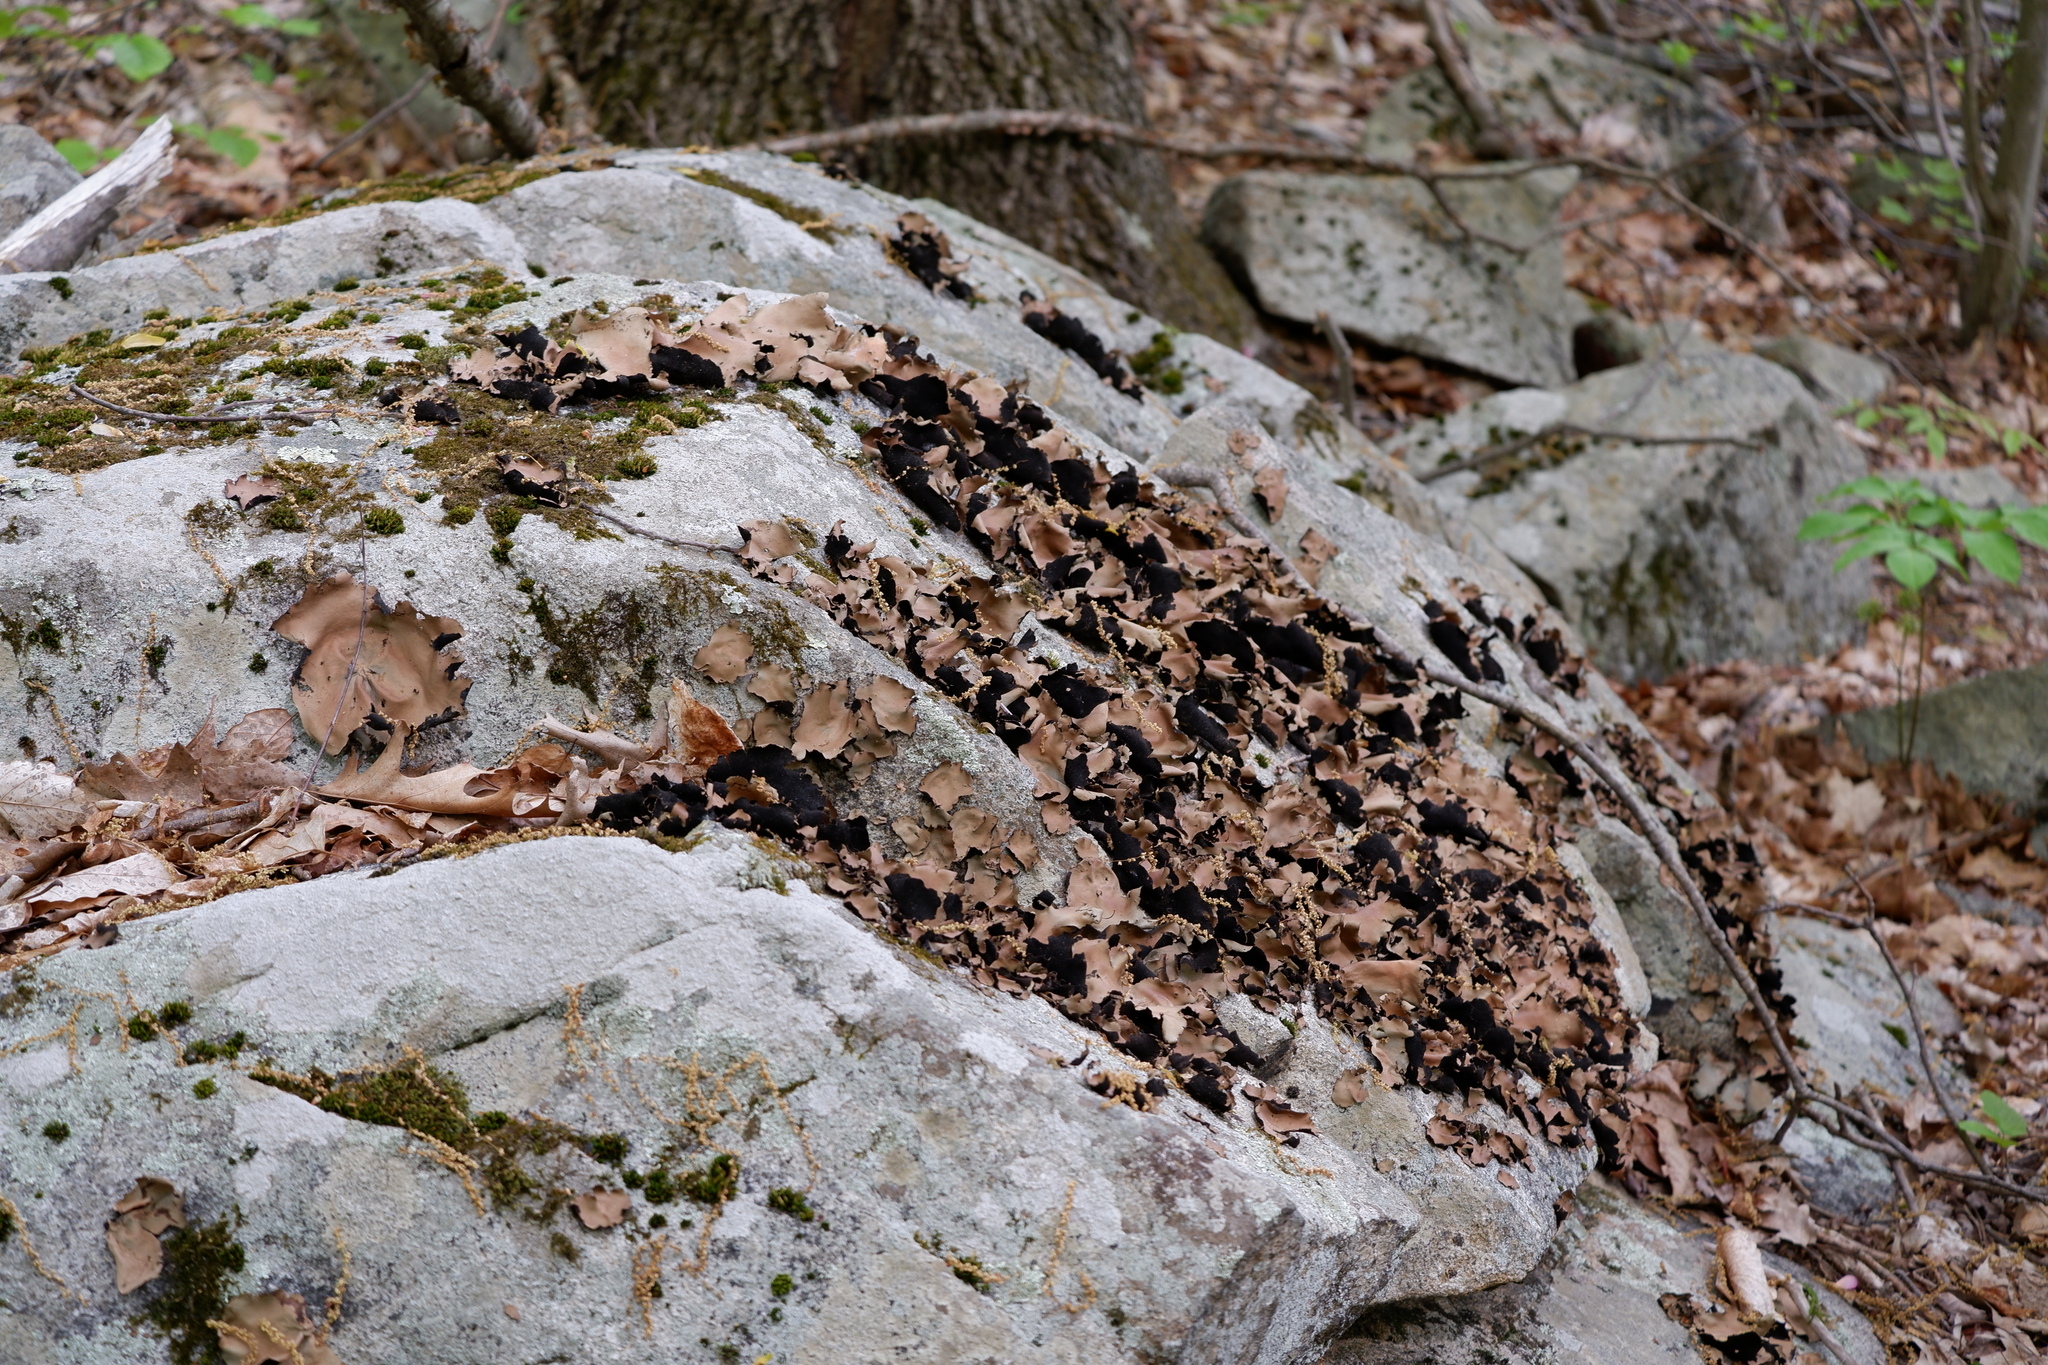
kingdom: Fungi
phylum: Ascomycota
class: Lecanoromycetes
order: Umbilicariales
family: Umbilicariaceae
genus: Umbilicaria
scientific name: Umbilicaria mammulata
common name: Smooth rock tripe
